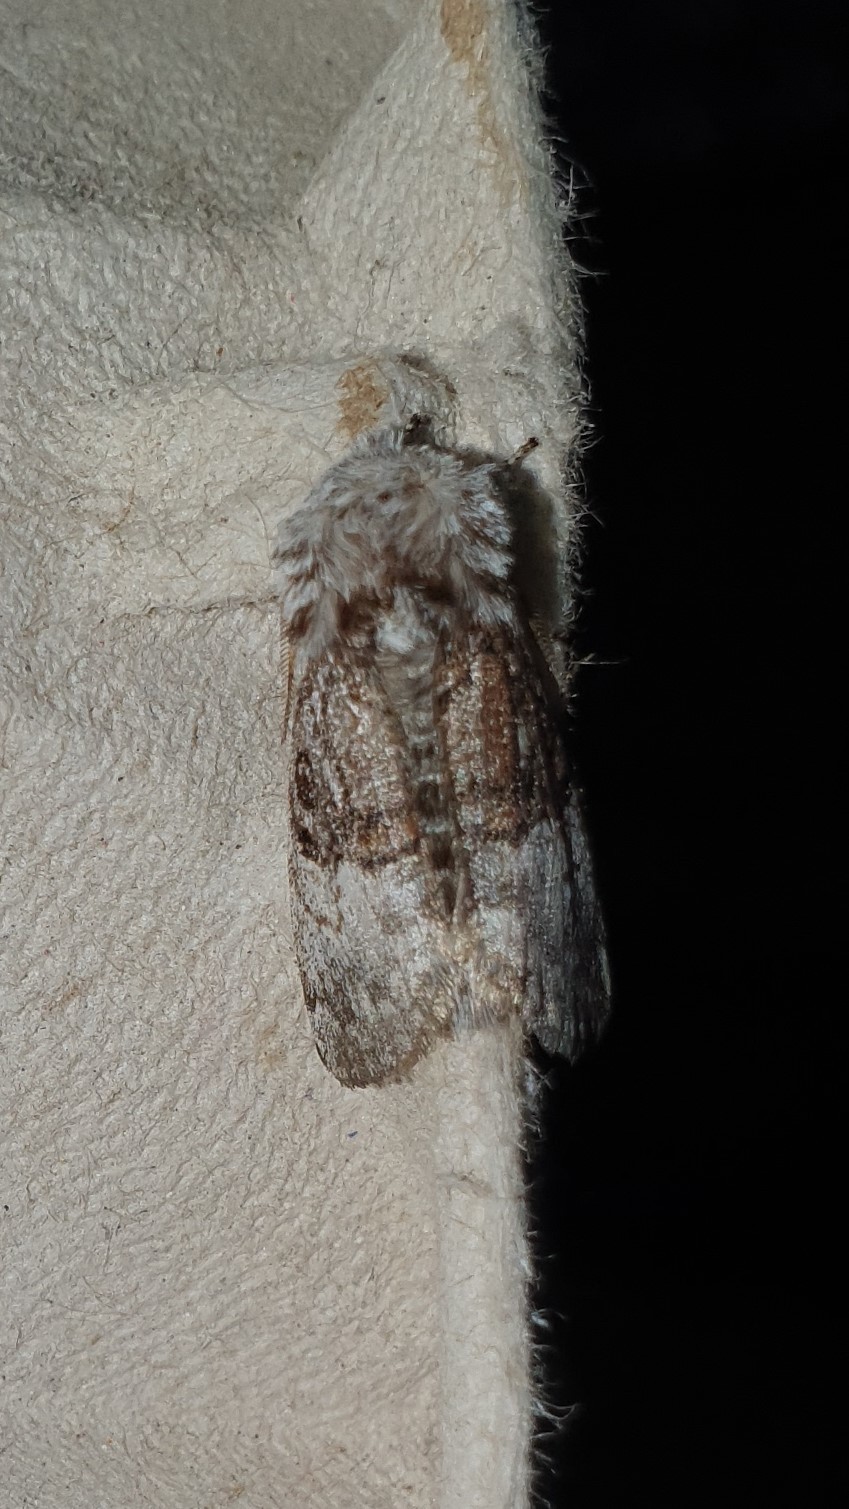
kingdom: Animalia
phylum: Arthropoda
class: Insecta
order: Lepidoptera
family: Noctuidae
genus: Colocasia
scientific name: Colocasia coryli
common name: Nut-tree tussock
